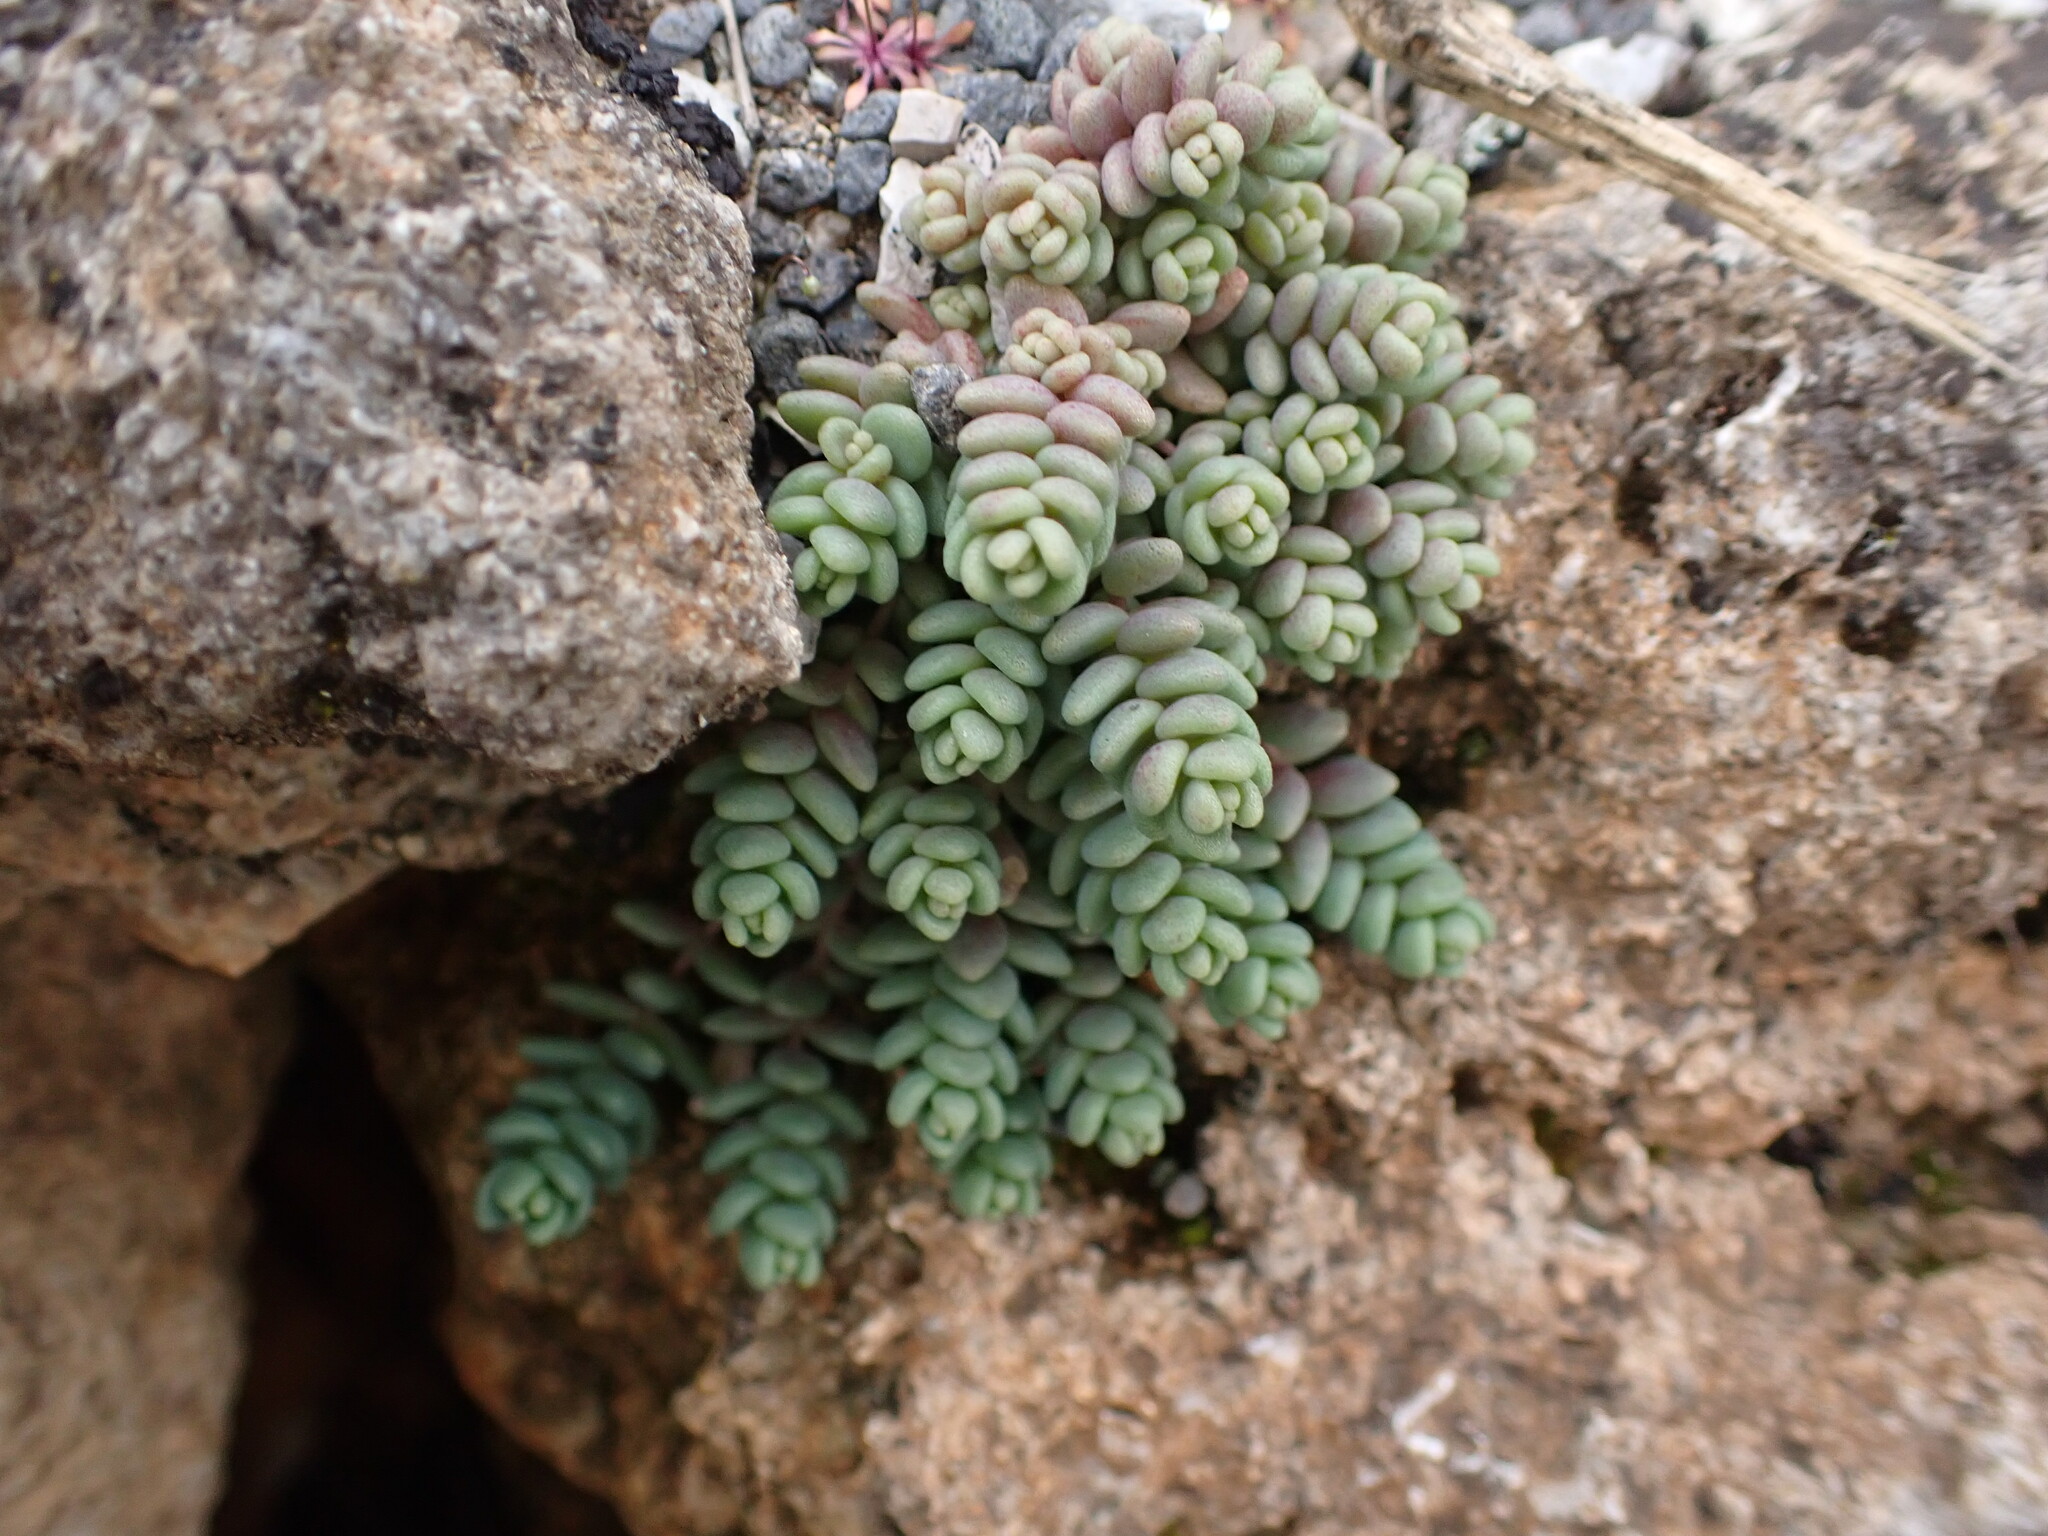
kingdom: Plantae
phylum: Tracheophyta
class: Magnoliopsida
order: Saxifragales
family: Crassulaceae
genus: Sedum
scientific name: Sedum dasyphyllum
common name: Thick-leaf stonecrop
